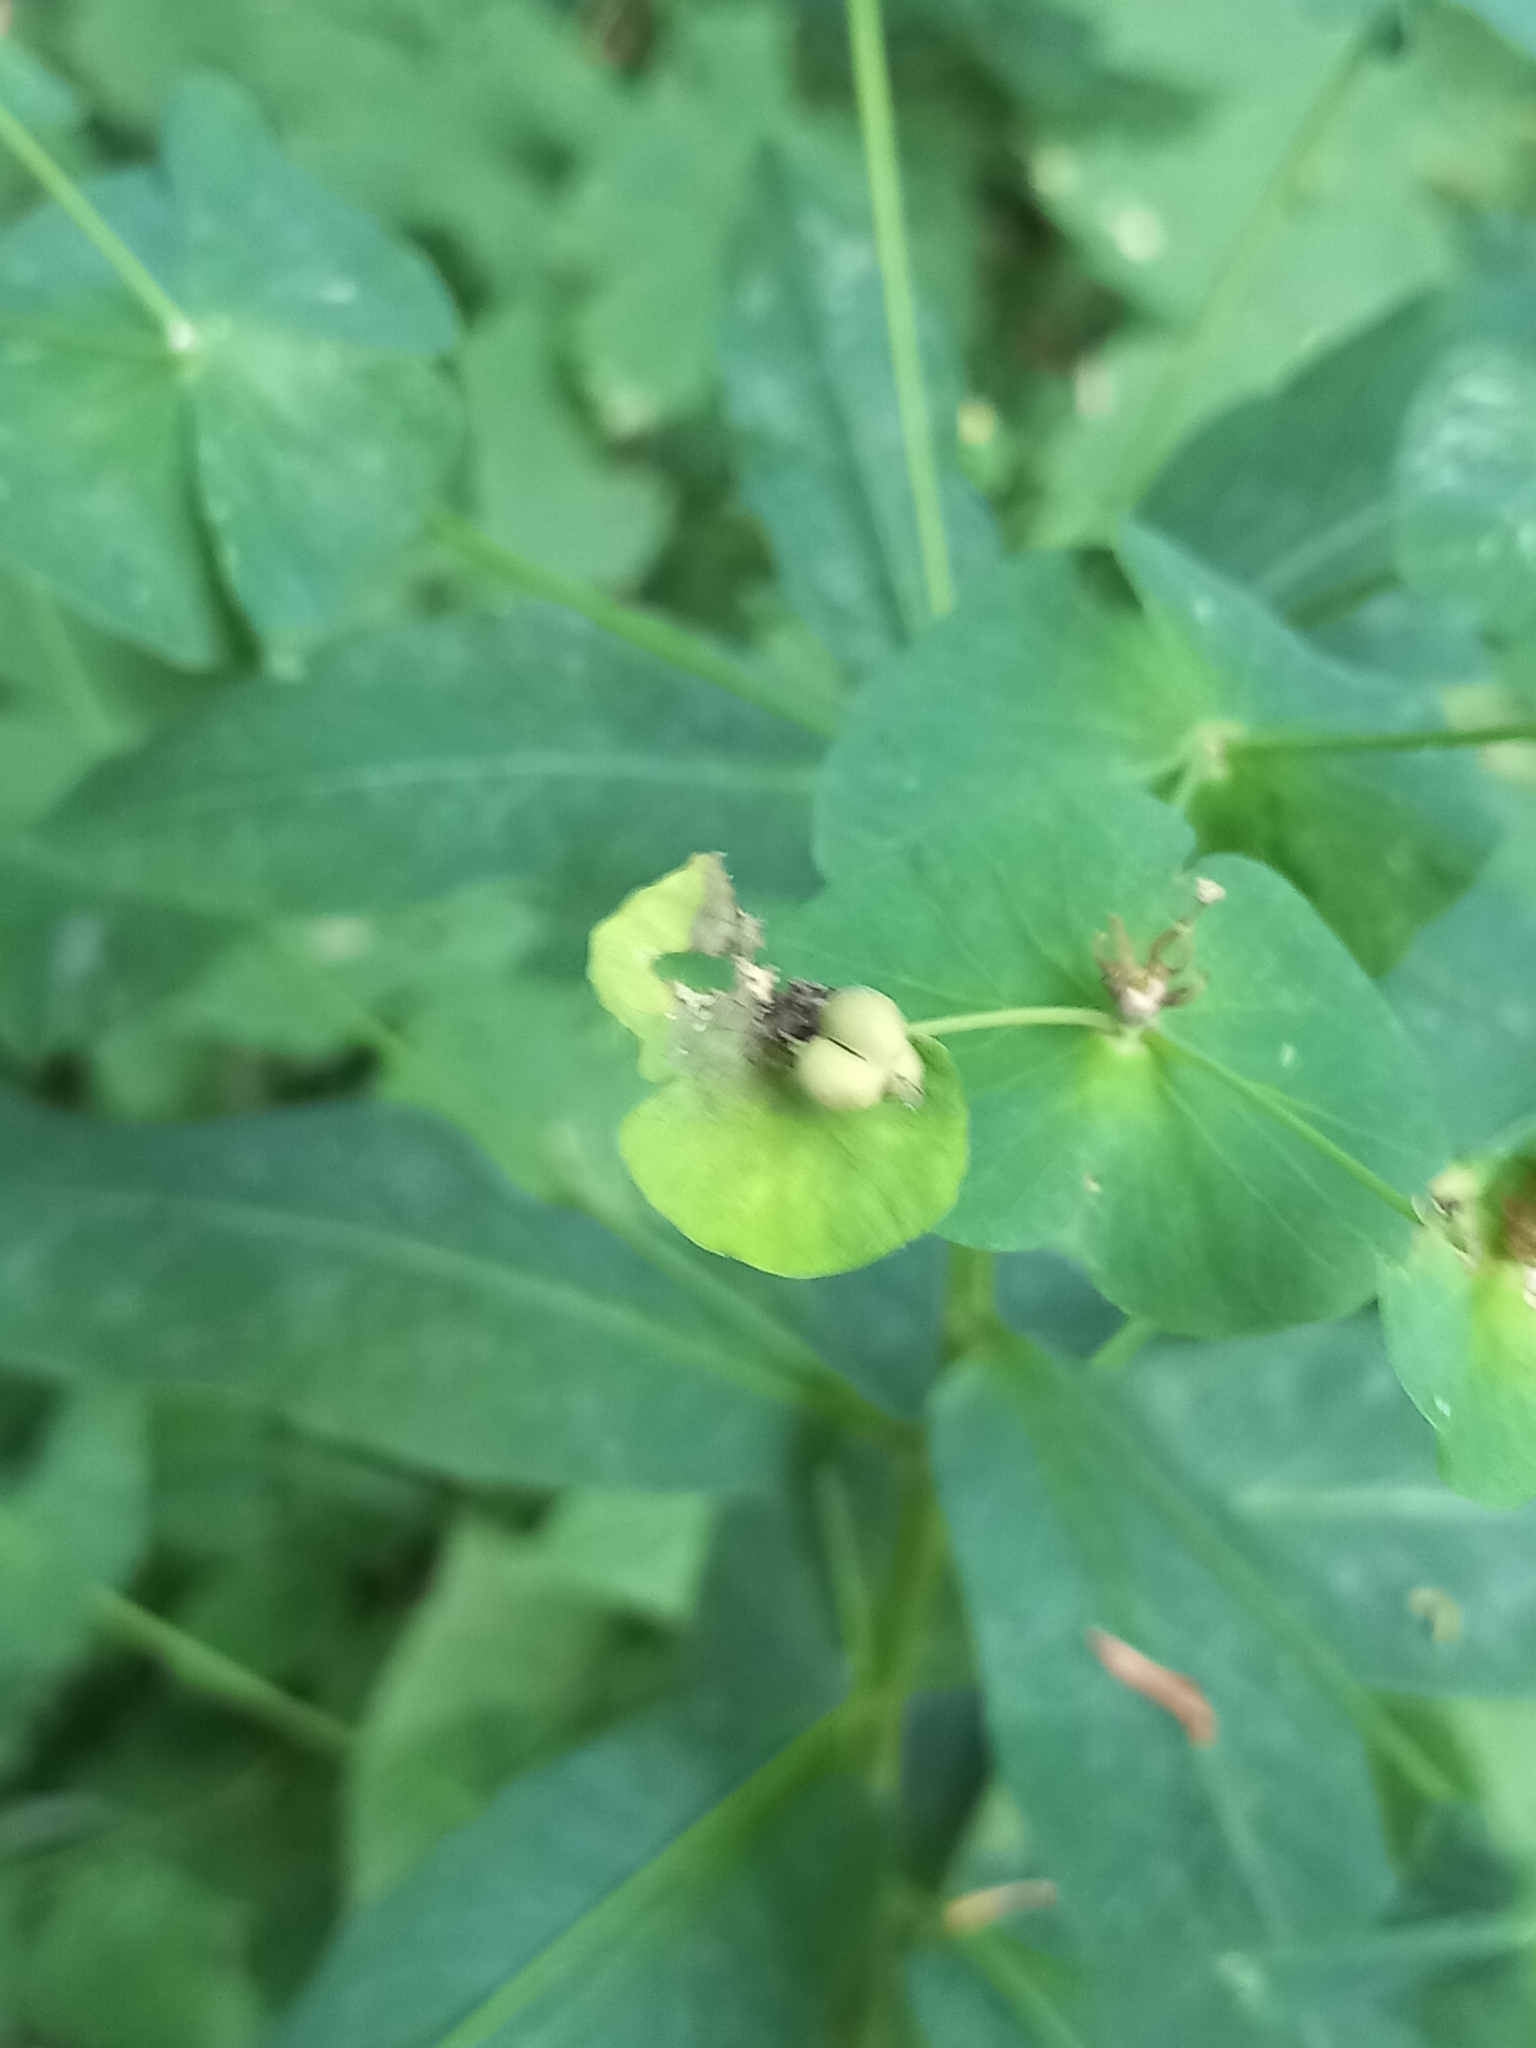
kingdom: Plantae
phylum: Tracheophyta
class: Magnoliopsida
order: Malpighiales
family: Euphorbiaceae
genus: Euphorbia
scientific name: Euphorbia macroceras
